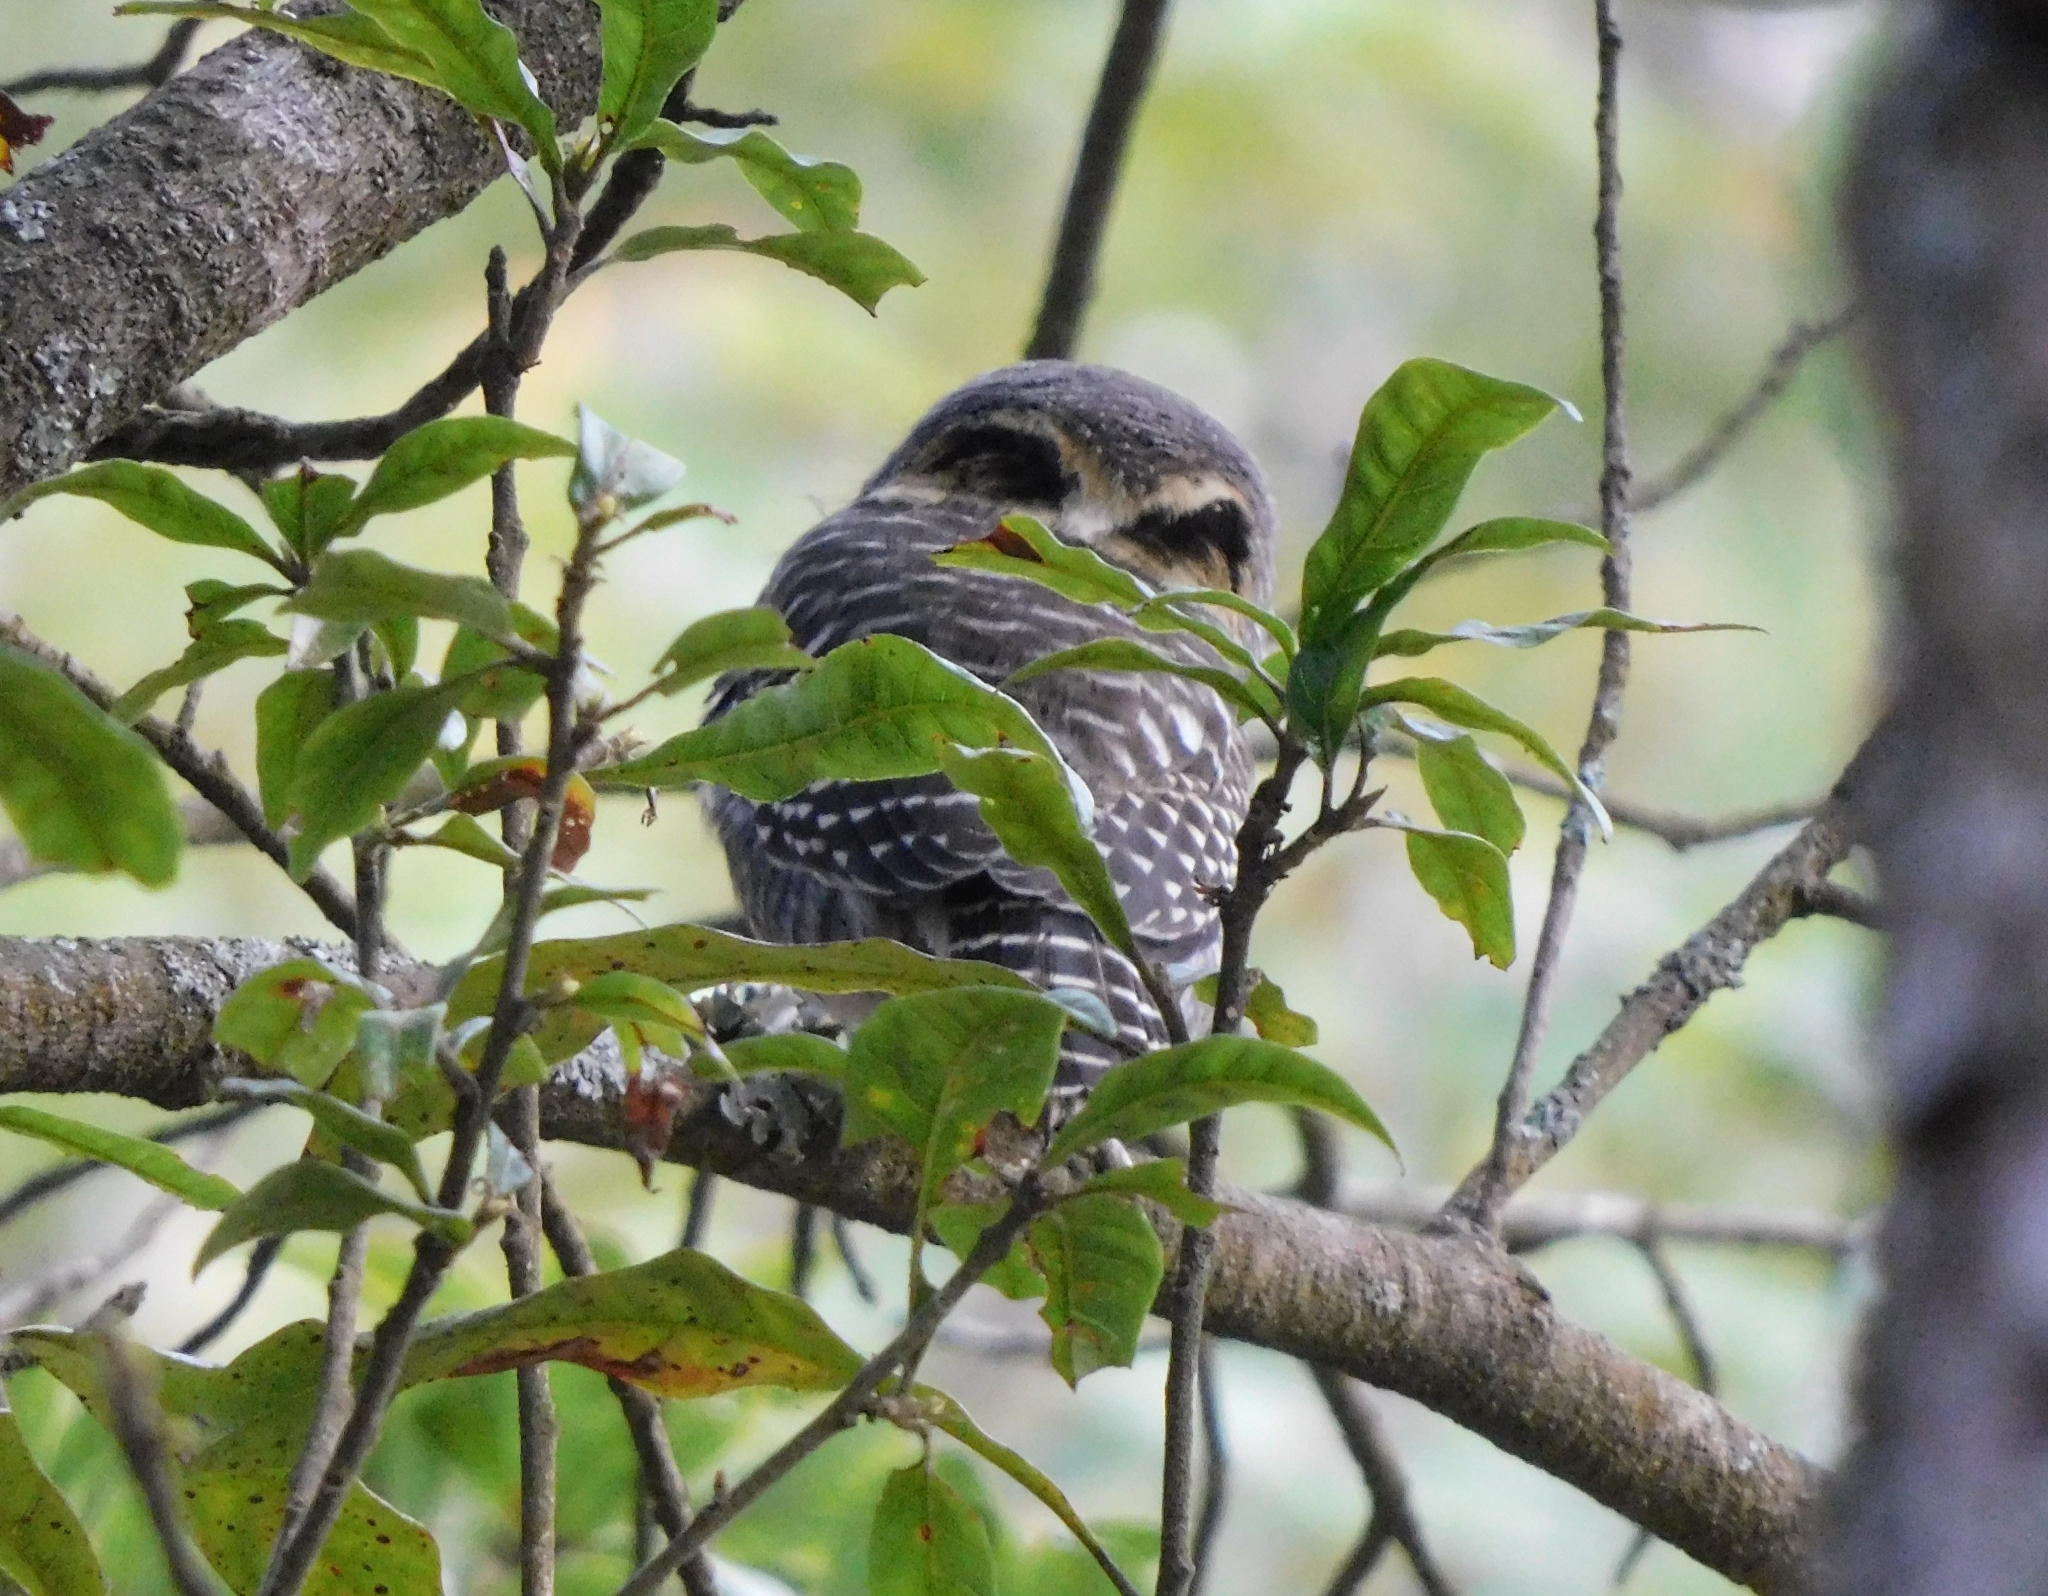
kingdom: Animalia
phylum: Chordata
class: Aves
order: Strigiformes
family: Strigidae
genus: Glaucidium
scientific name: Glaucidium brodiei
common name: Collared owlet
